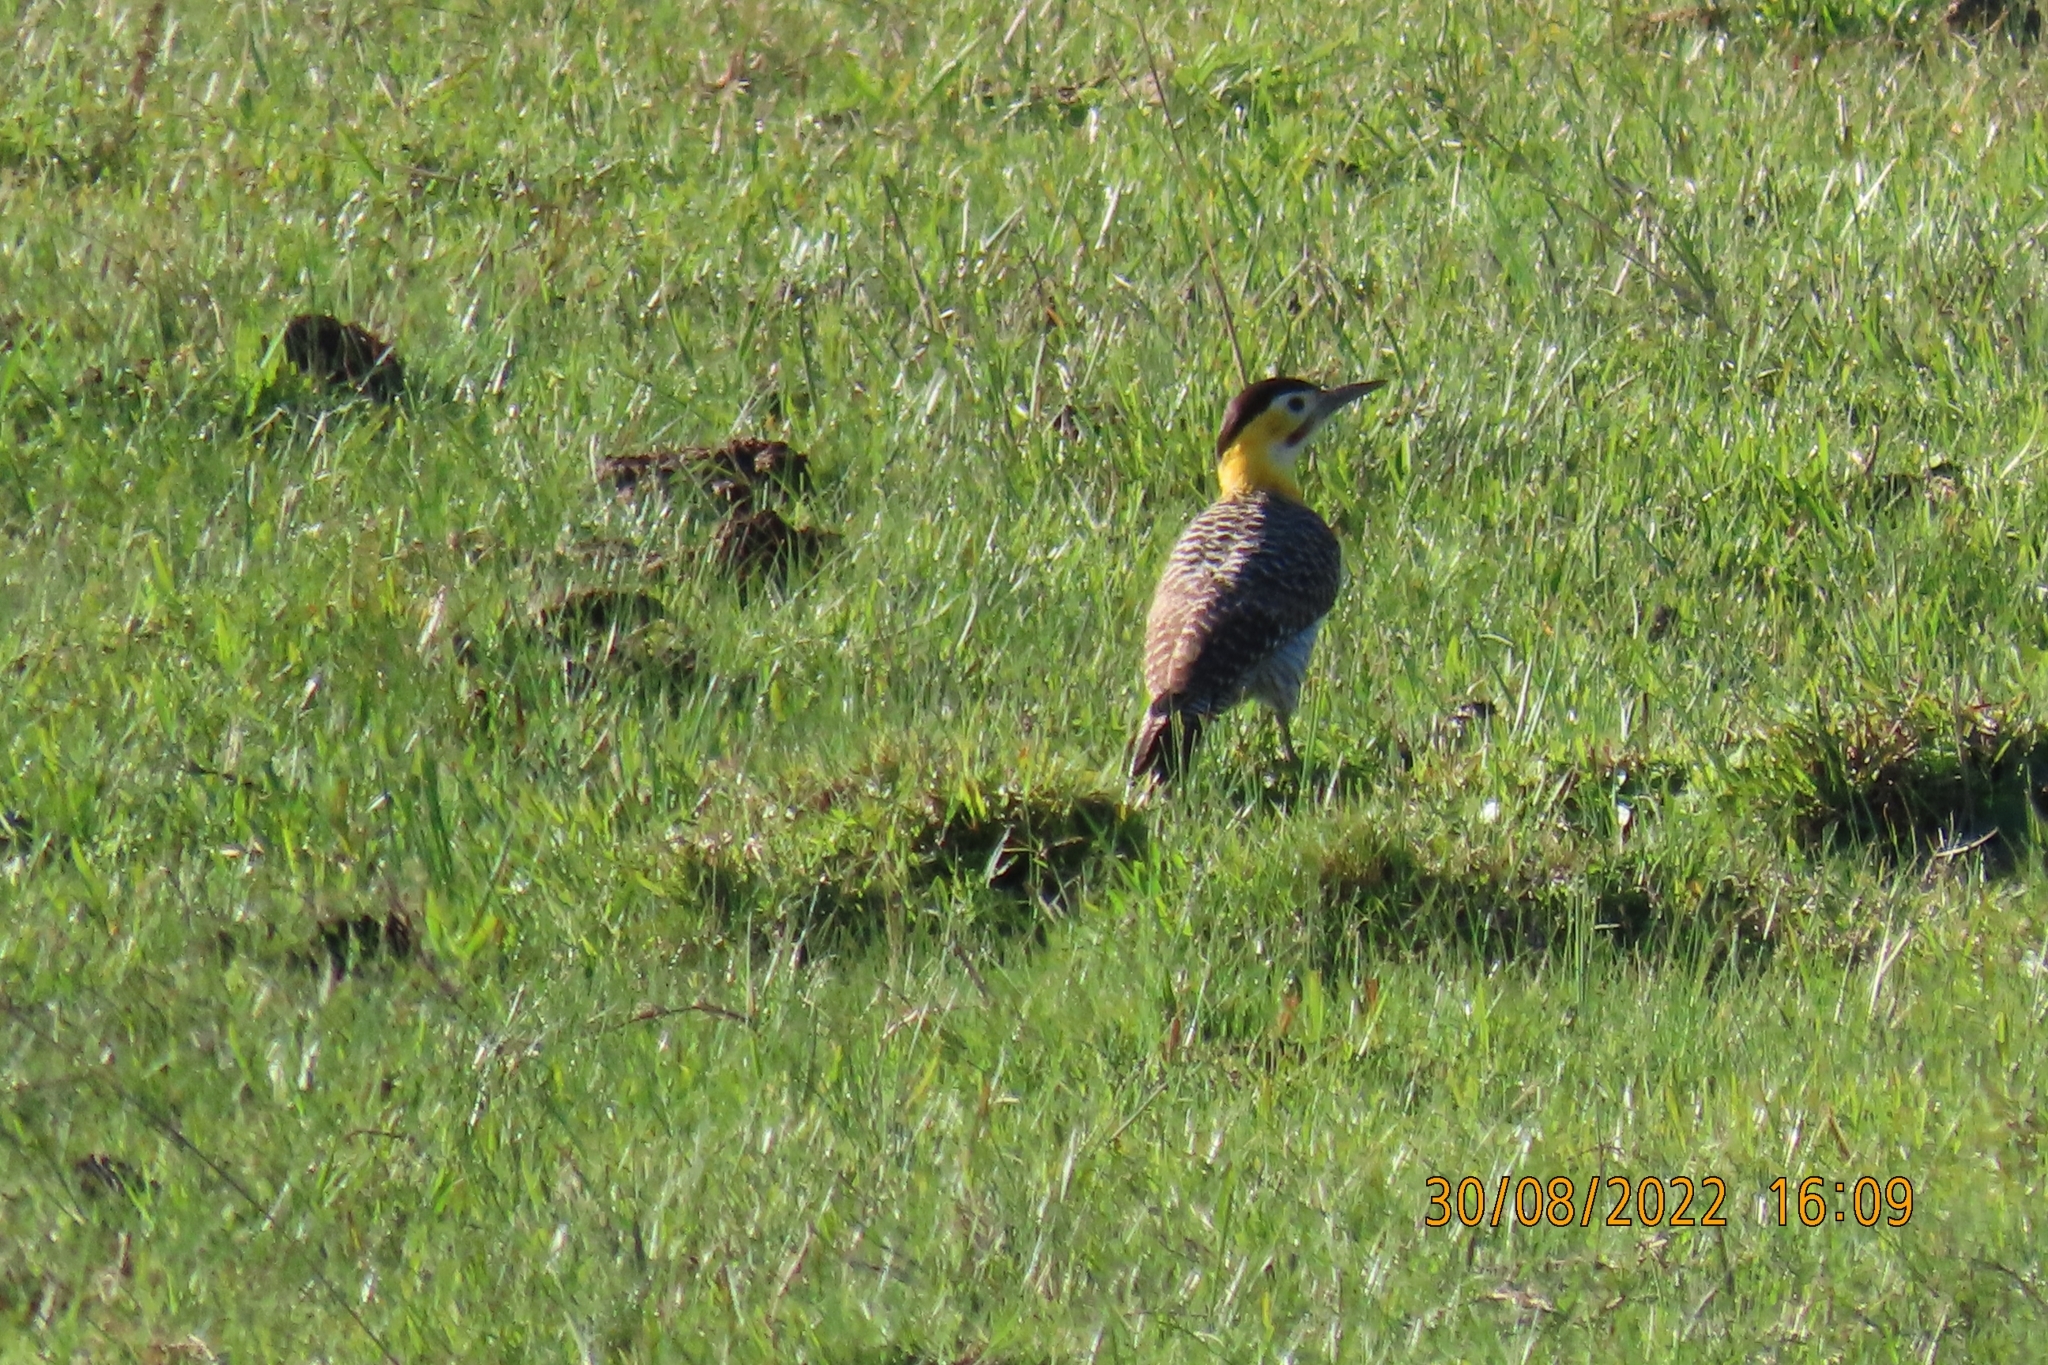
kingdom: Animalia
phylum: Chordata
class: Aves
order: Piciformes
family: Picidae
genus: Colaptes
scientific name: Colaptes campestris
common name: Campo flicker
